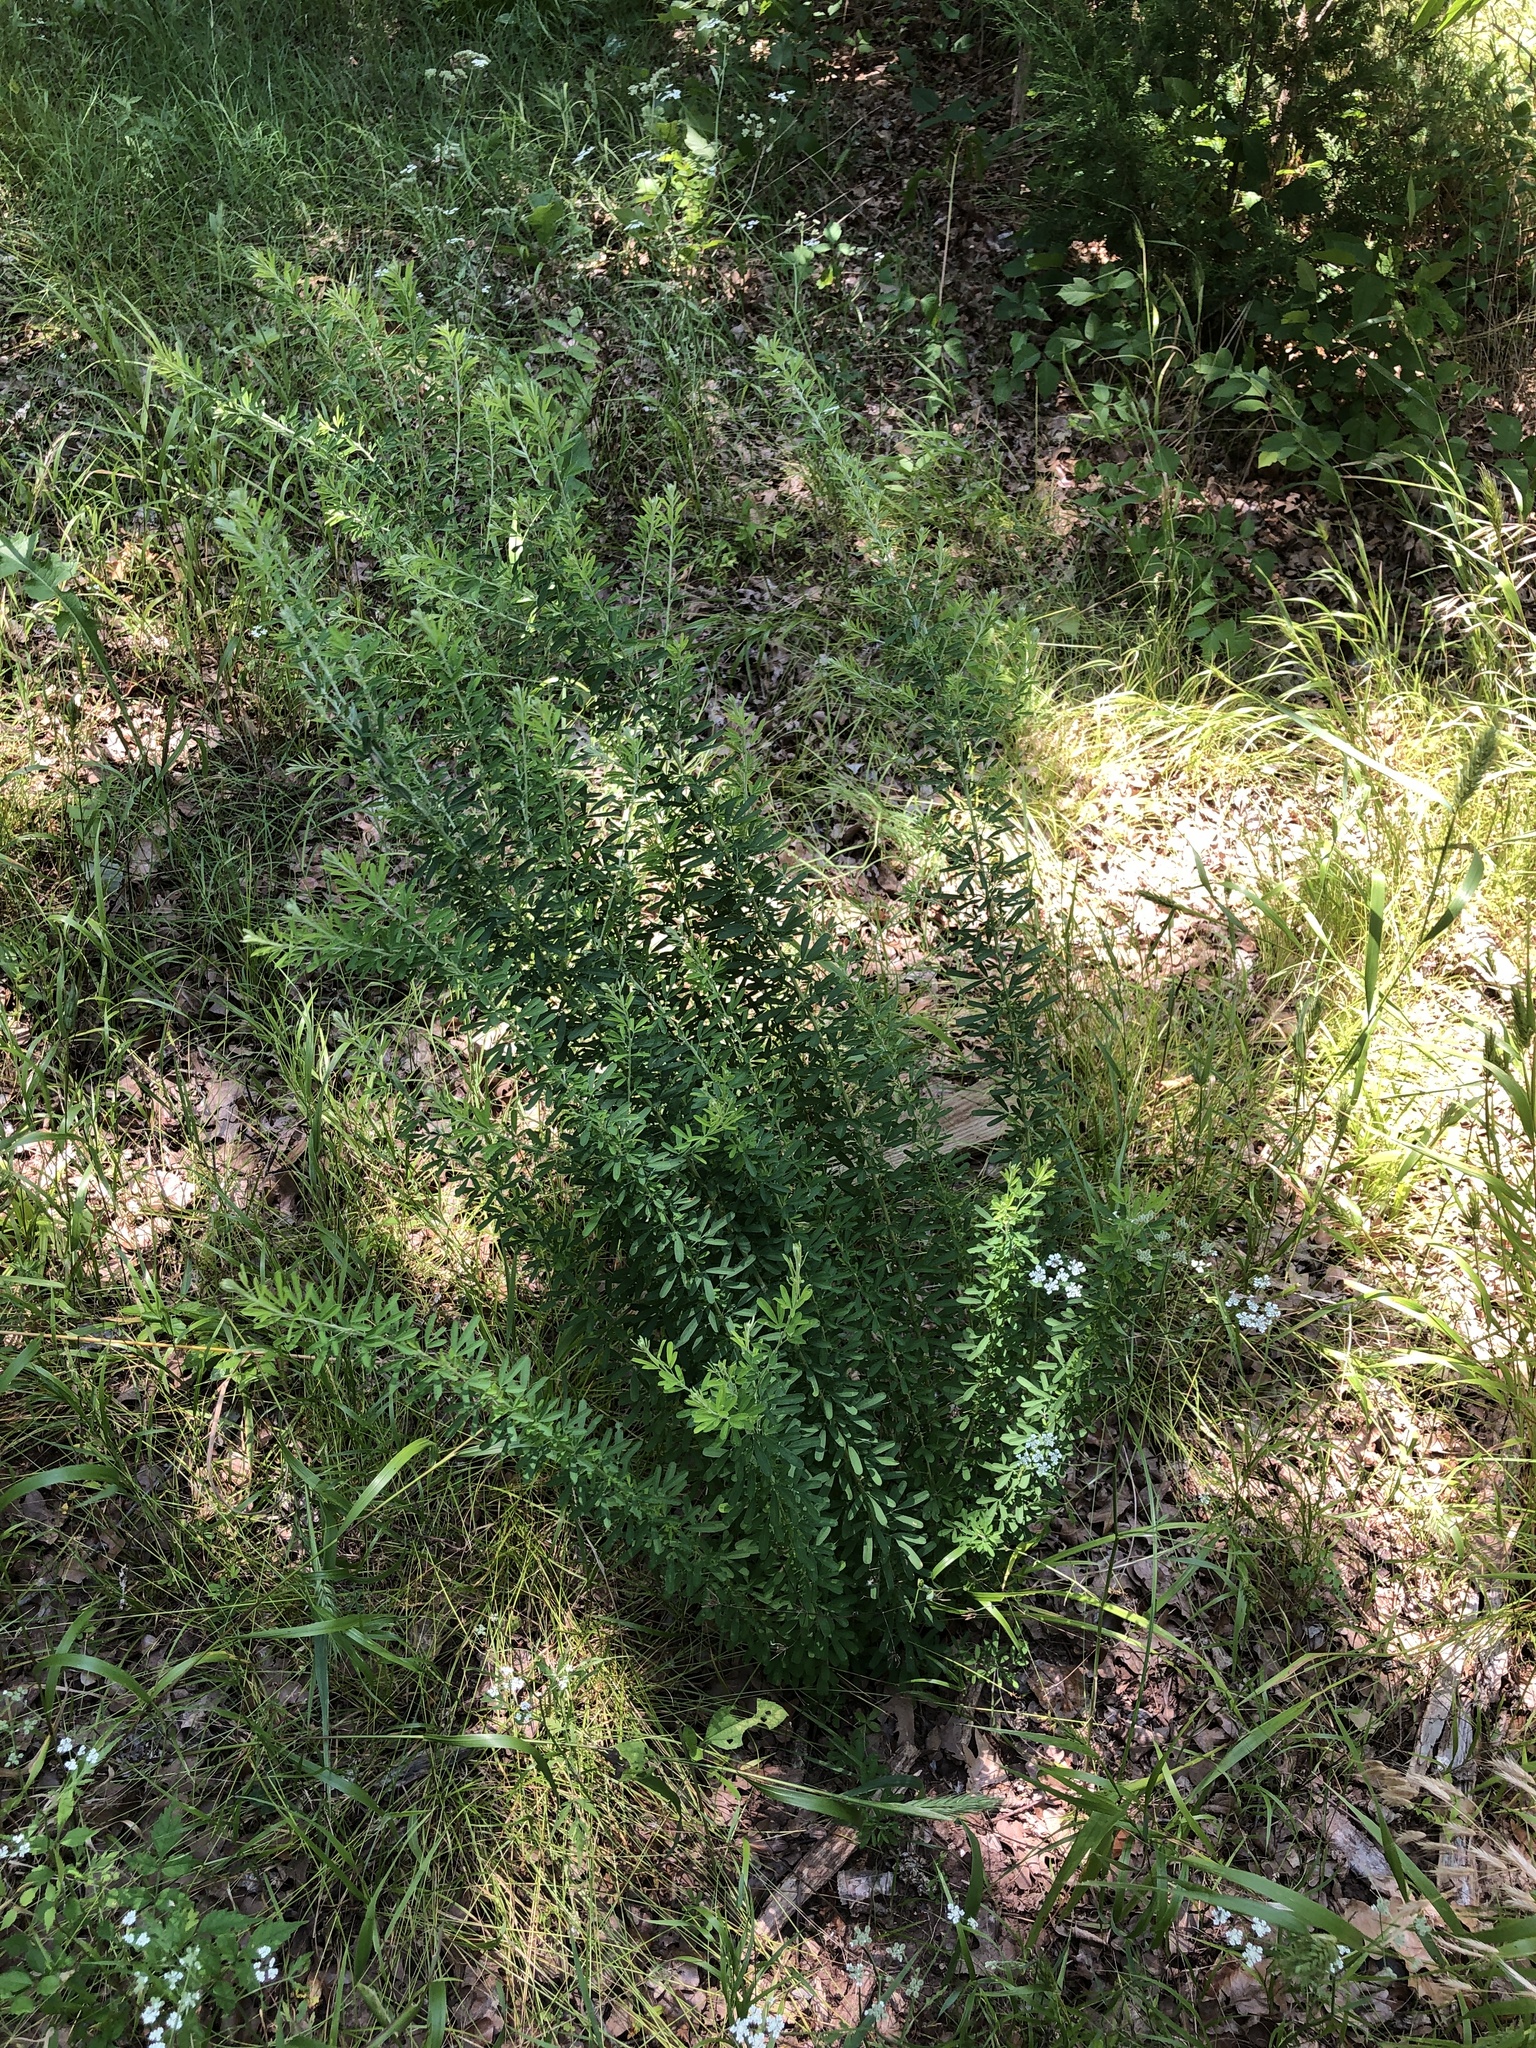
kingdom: Plantae
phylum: Tracheophyta
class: Magnoliopsida
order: Fabales
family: Fabaceae
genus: Lespedeza
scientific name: Lespedeza cuneata
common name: Chinese bush-clover
